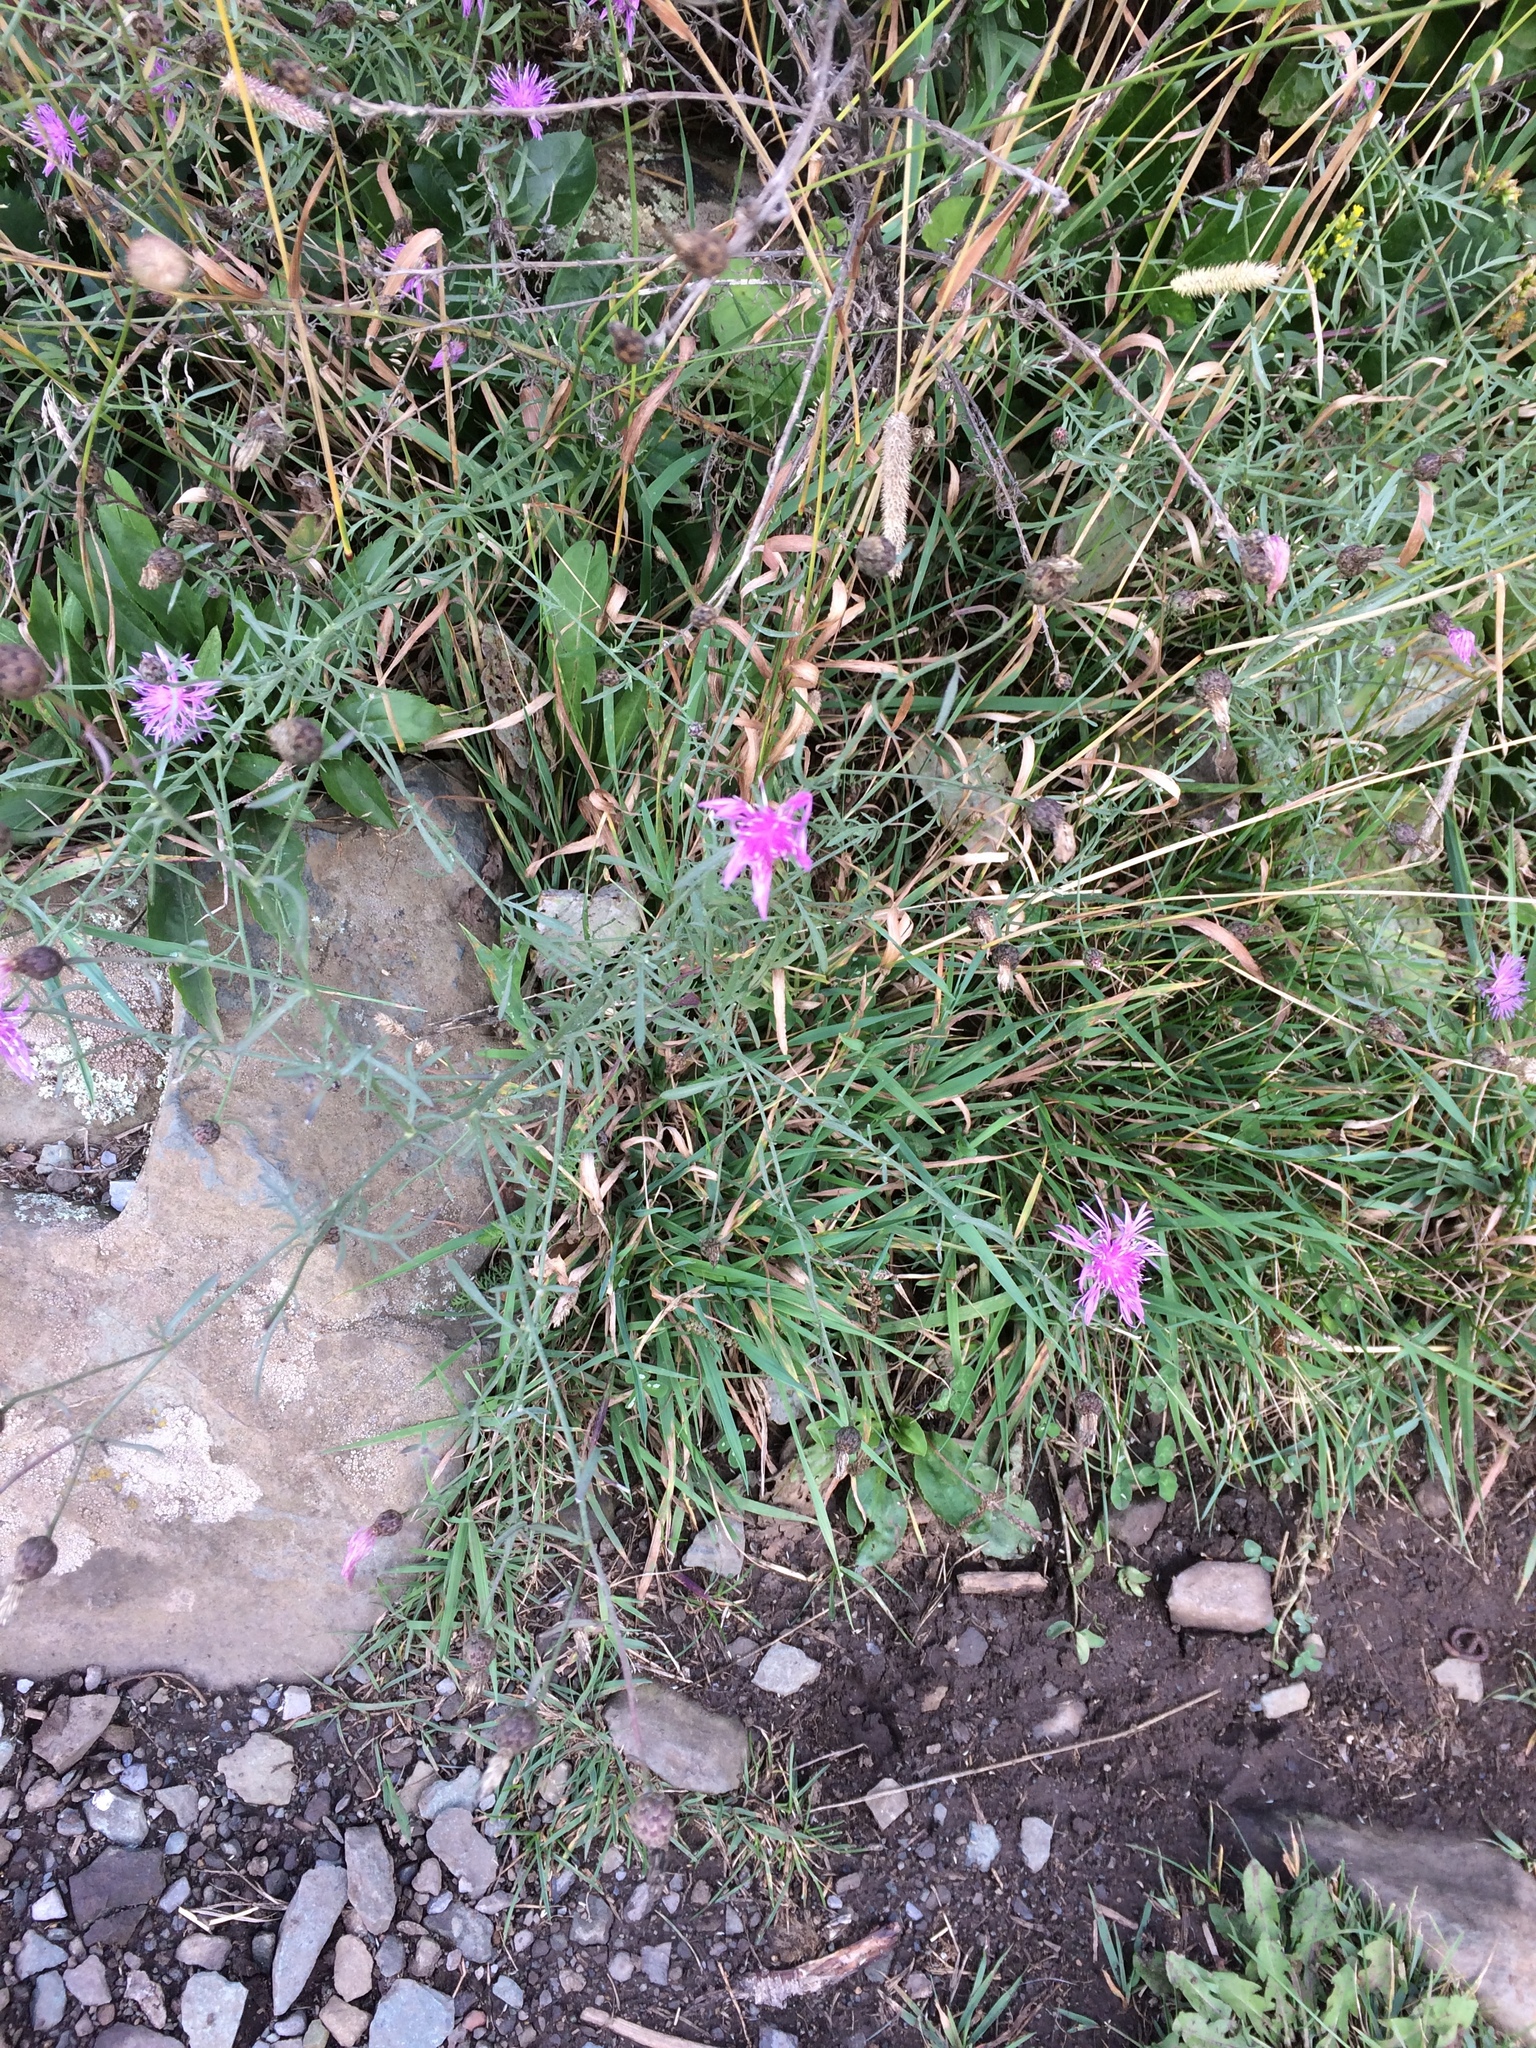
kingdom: Plantae
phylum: Tracheophyta
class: Magnoliopsida
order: Asterales
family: Asteraceae
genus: Centaurea
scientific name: Centaurea stoebe
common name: Spotted knapweed
